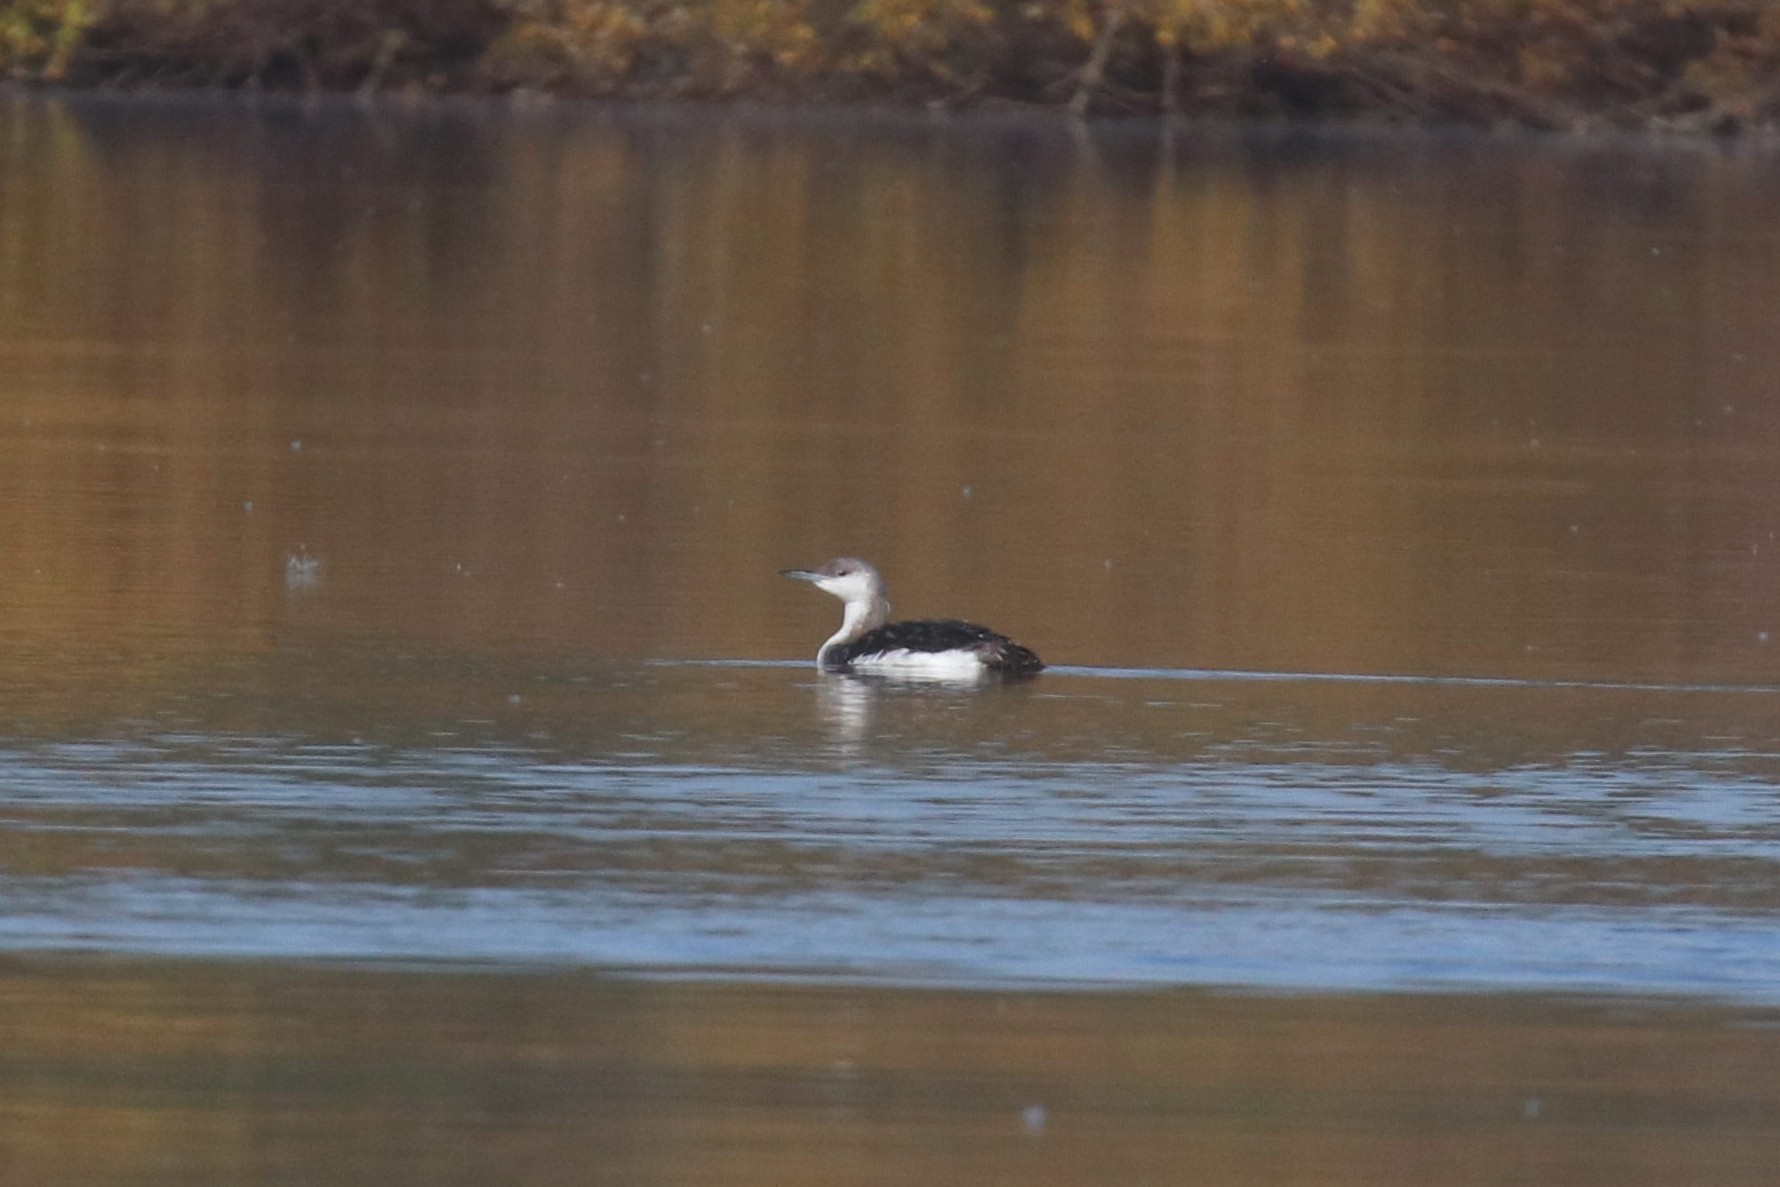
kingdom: Animalia
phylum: Chordata
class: Aves
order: Gaviiformes
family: Gaviidae
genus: Gavia
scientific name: Gavia arctica
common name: Black-throated loon
